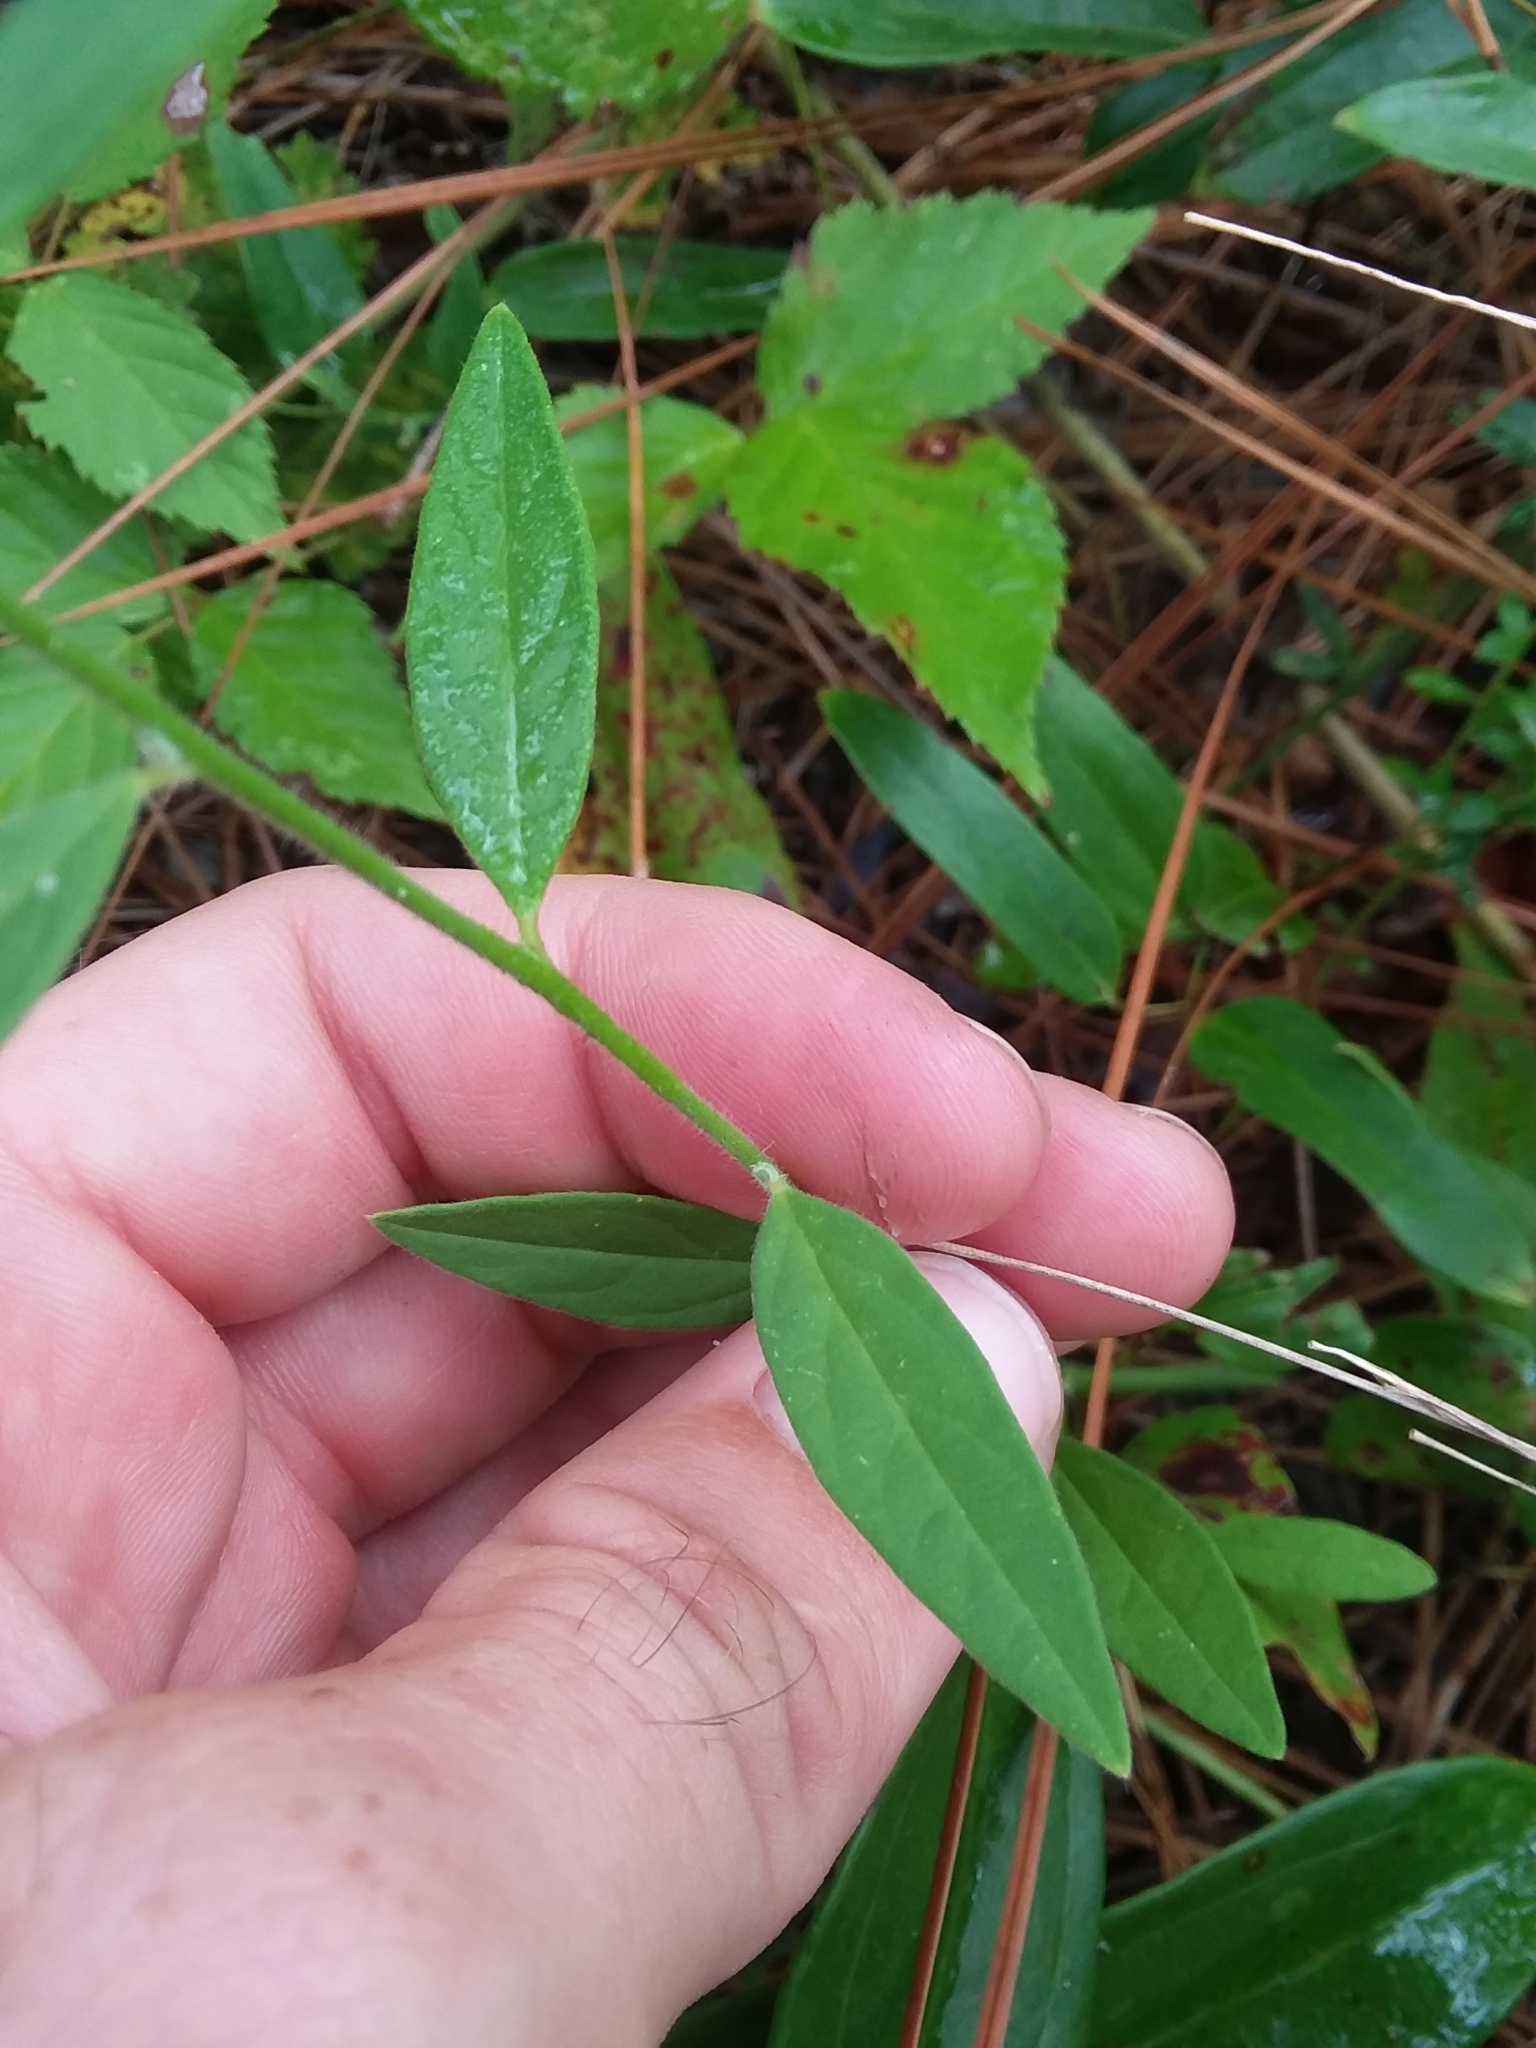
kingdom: Plantae
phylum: Tracheophyta
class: Magnoliopsida
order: Fabales
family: Polygalaceae
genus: Asemeia
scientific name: Asemeia grandiflora
